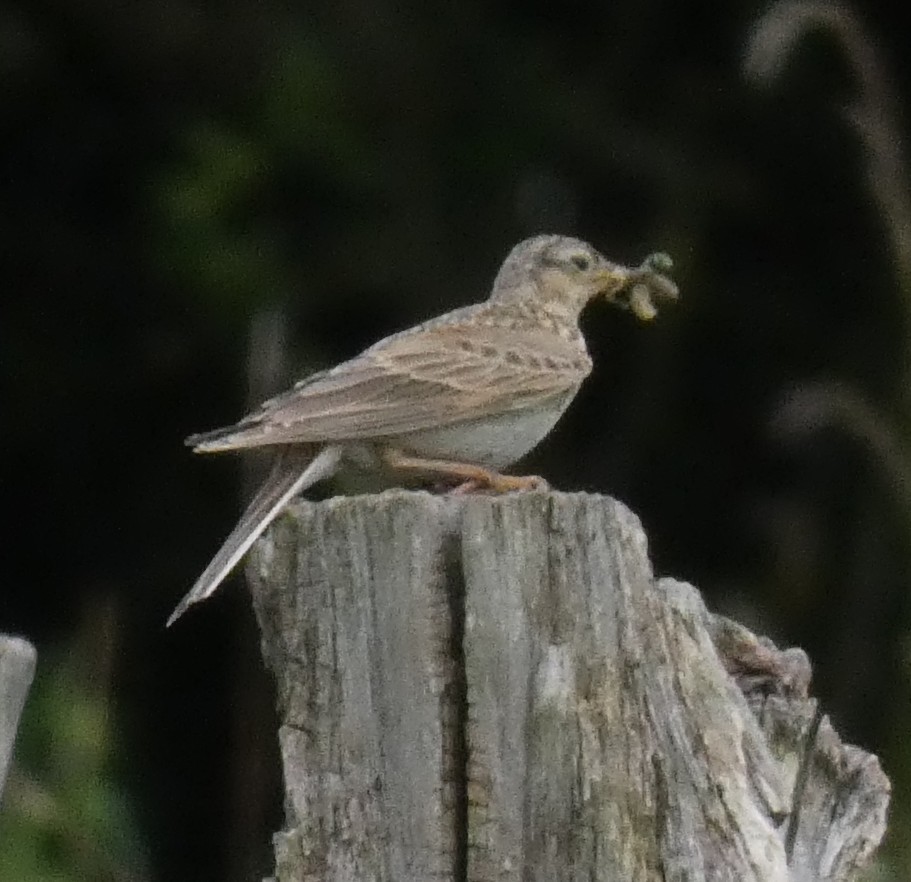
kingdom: Animalia
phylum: Chordata
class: Aves
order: Passeriformes
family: Alaudidae
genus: Alauda
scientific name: Alauda arvensis
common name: Eurasian skylark
